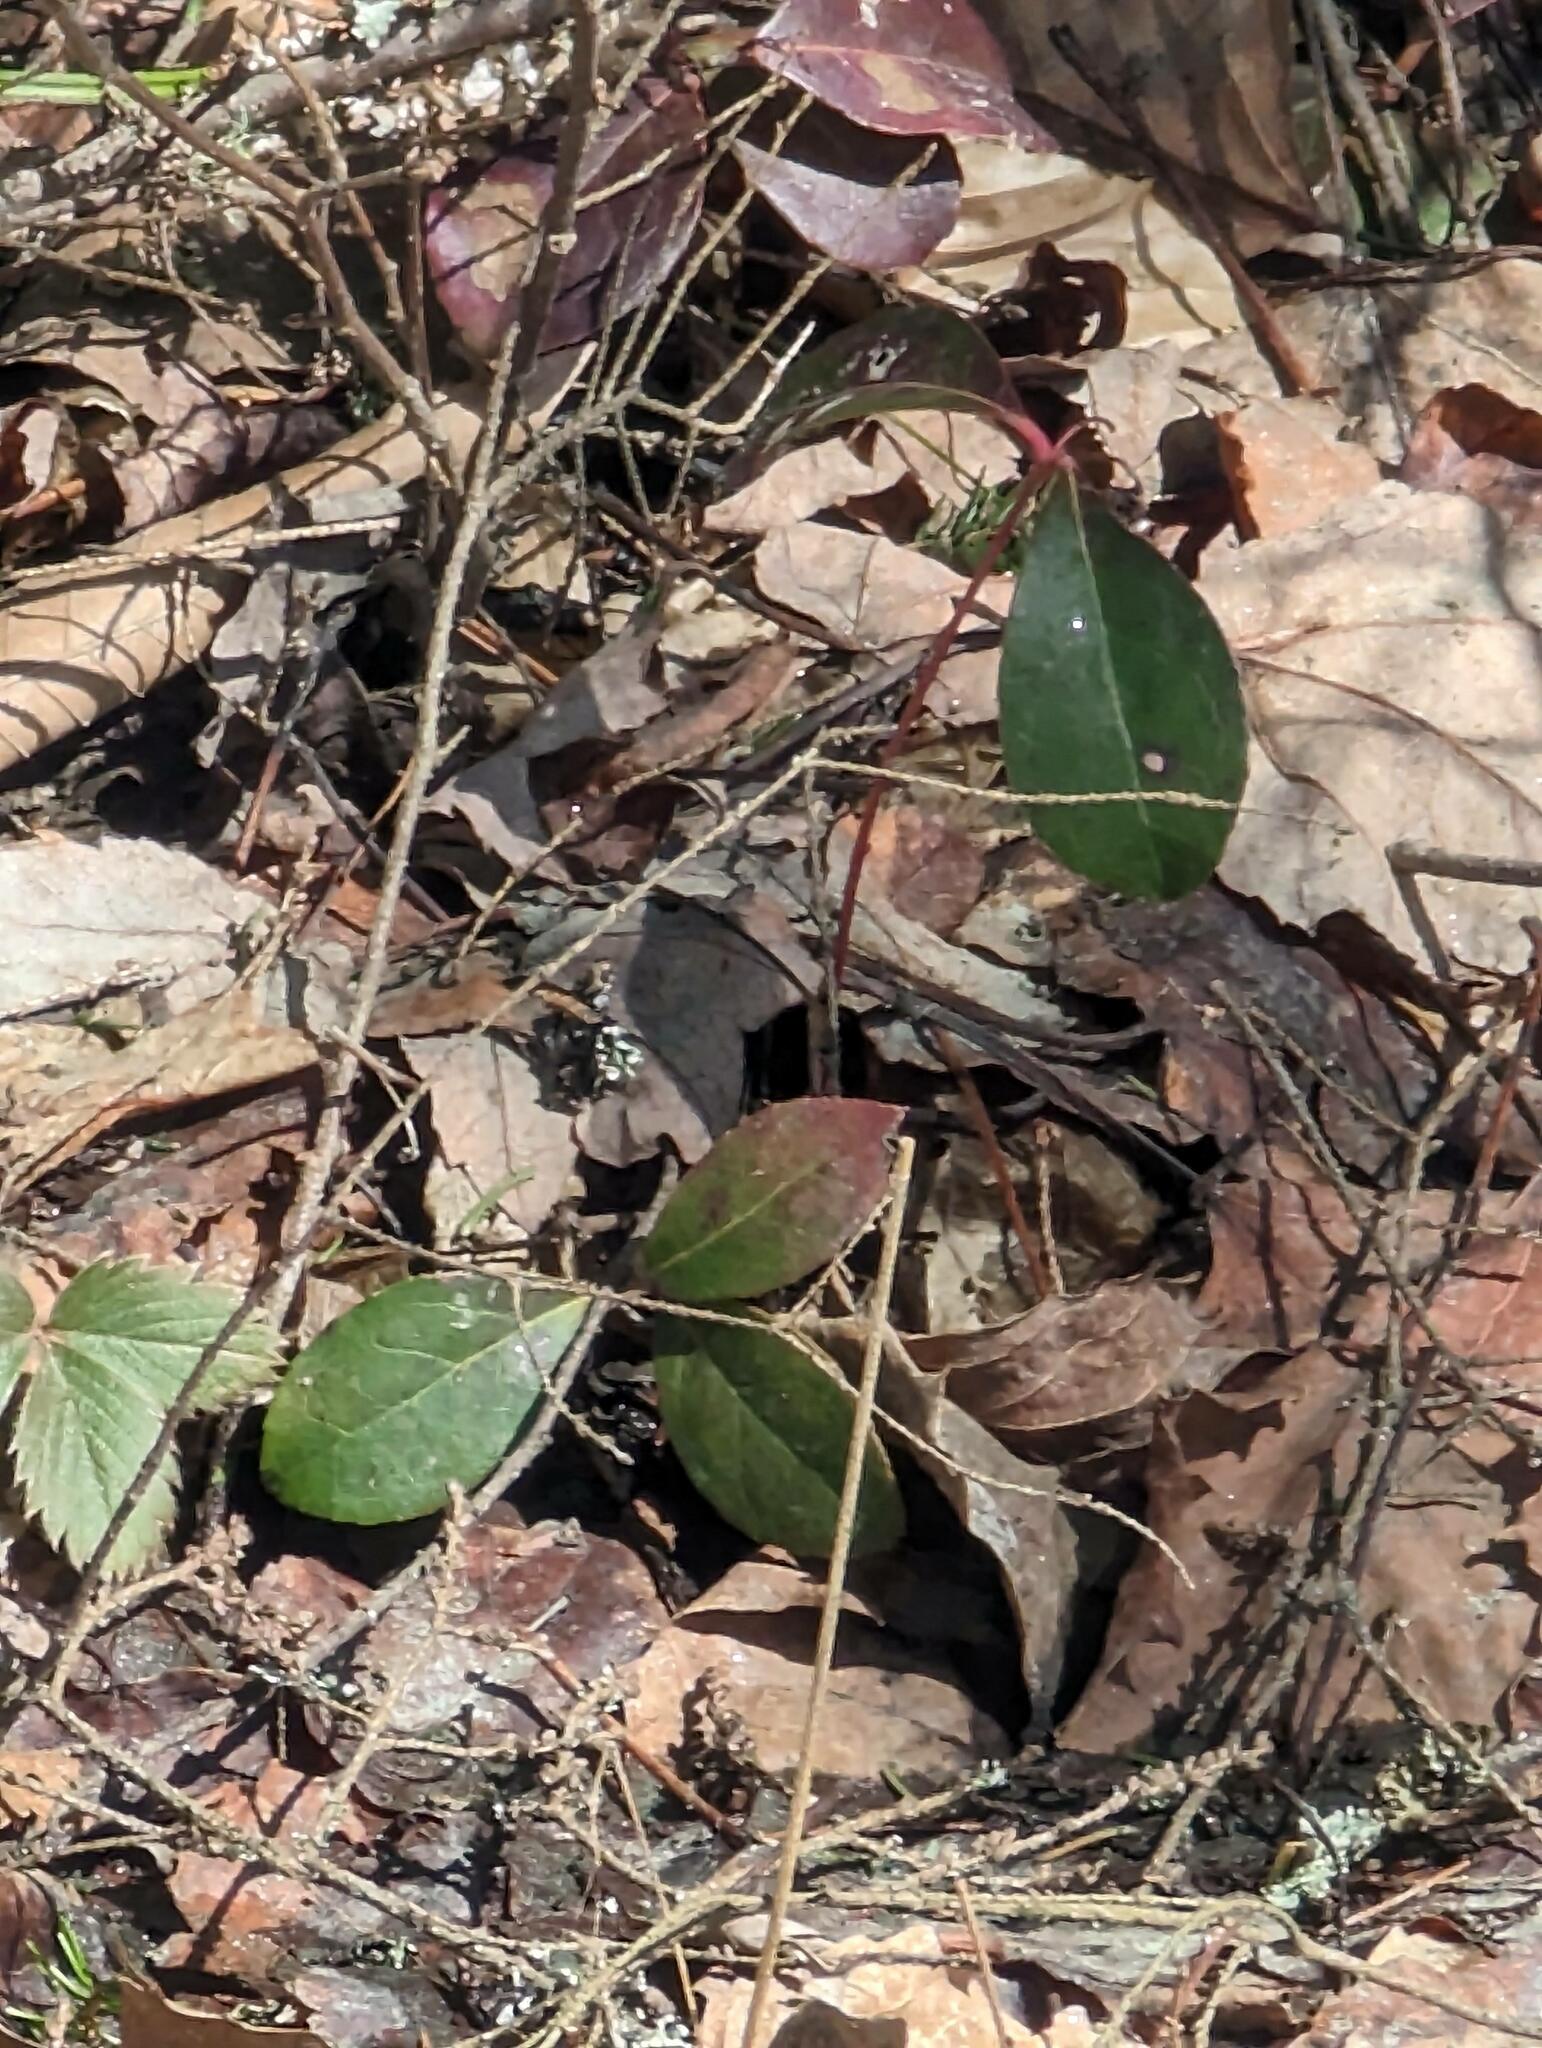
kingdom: Plantae
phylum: Tracheophyta
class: Magnoliopsida
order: Ericales
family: Ericaceae
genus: Gaultheria
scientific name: Gaultheria procumbens
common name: Checkerberry
